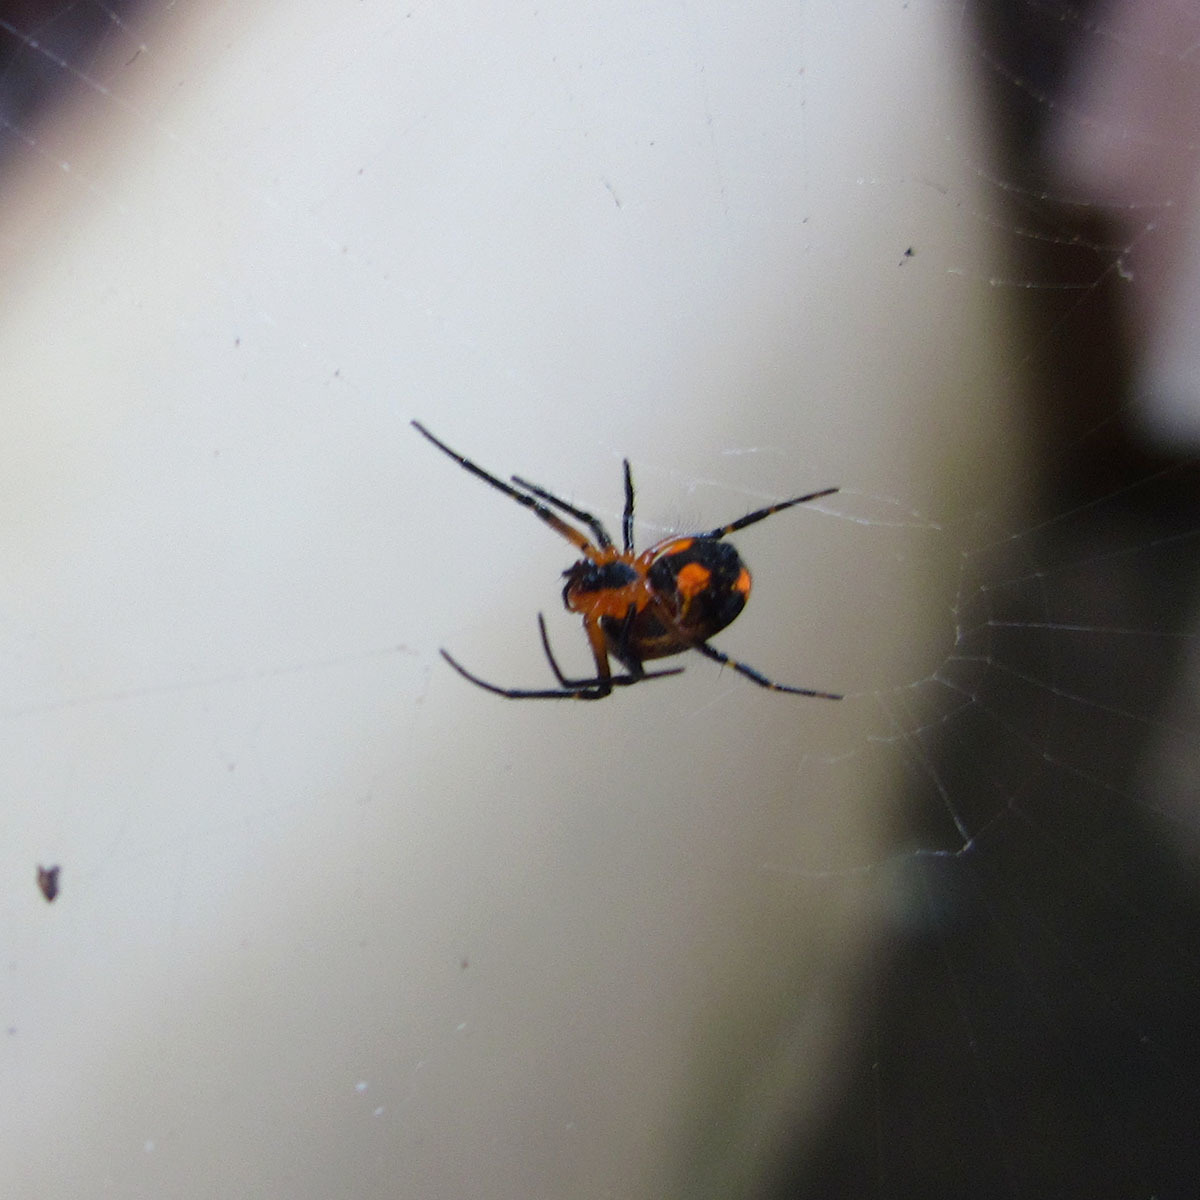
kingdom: Animalia
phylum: Arthropoda
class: Arachnida
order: Araneae
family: Tetragnathidae
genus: Leucauge
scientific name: Leucauge fastigata
